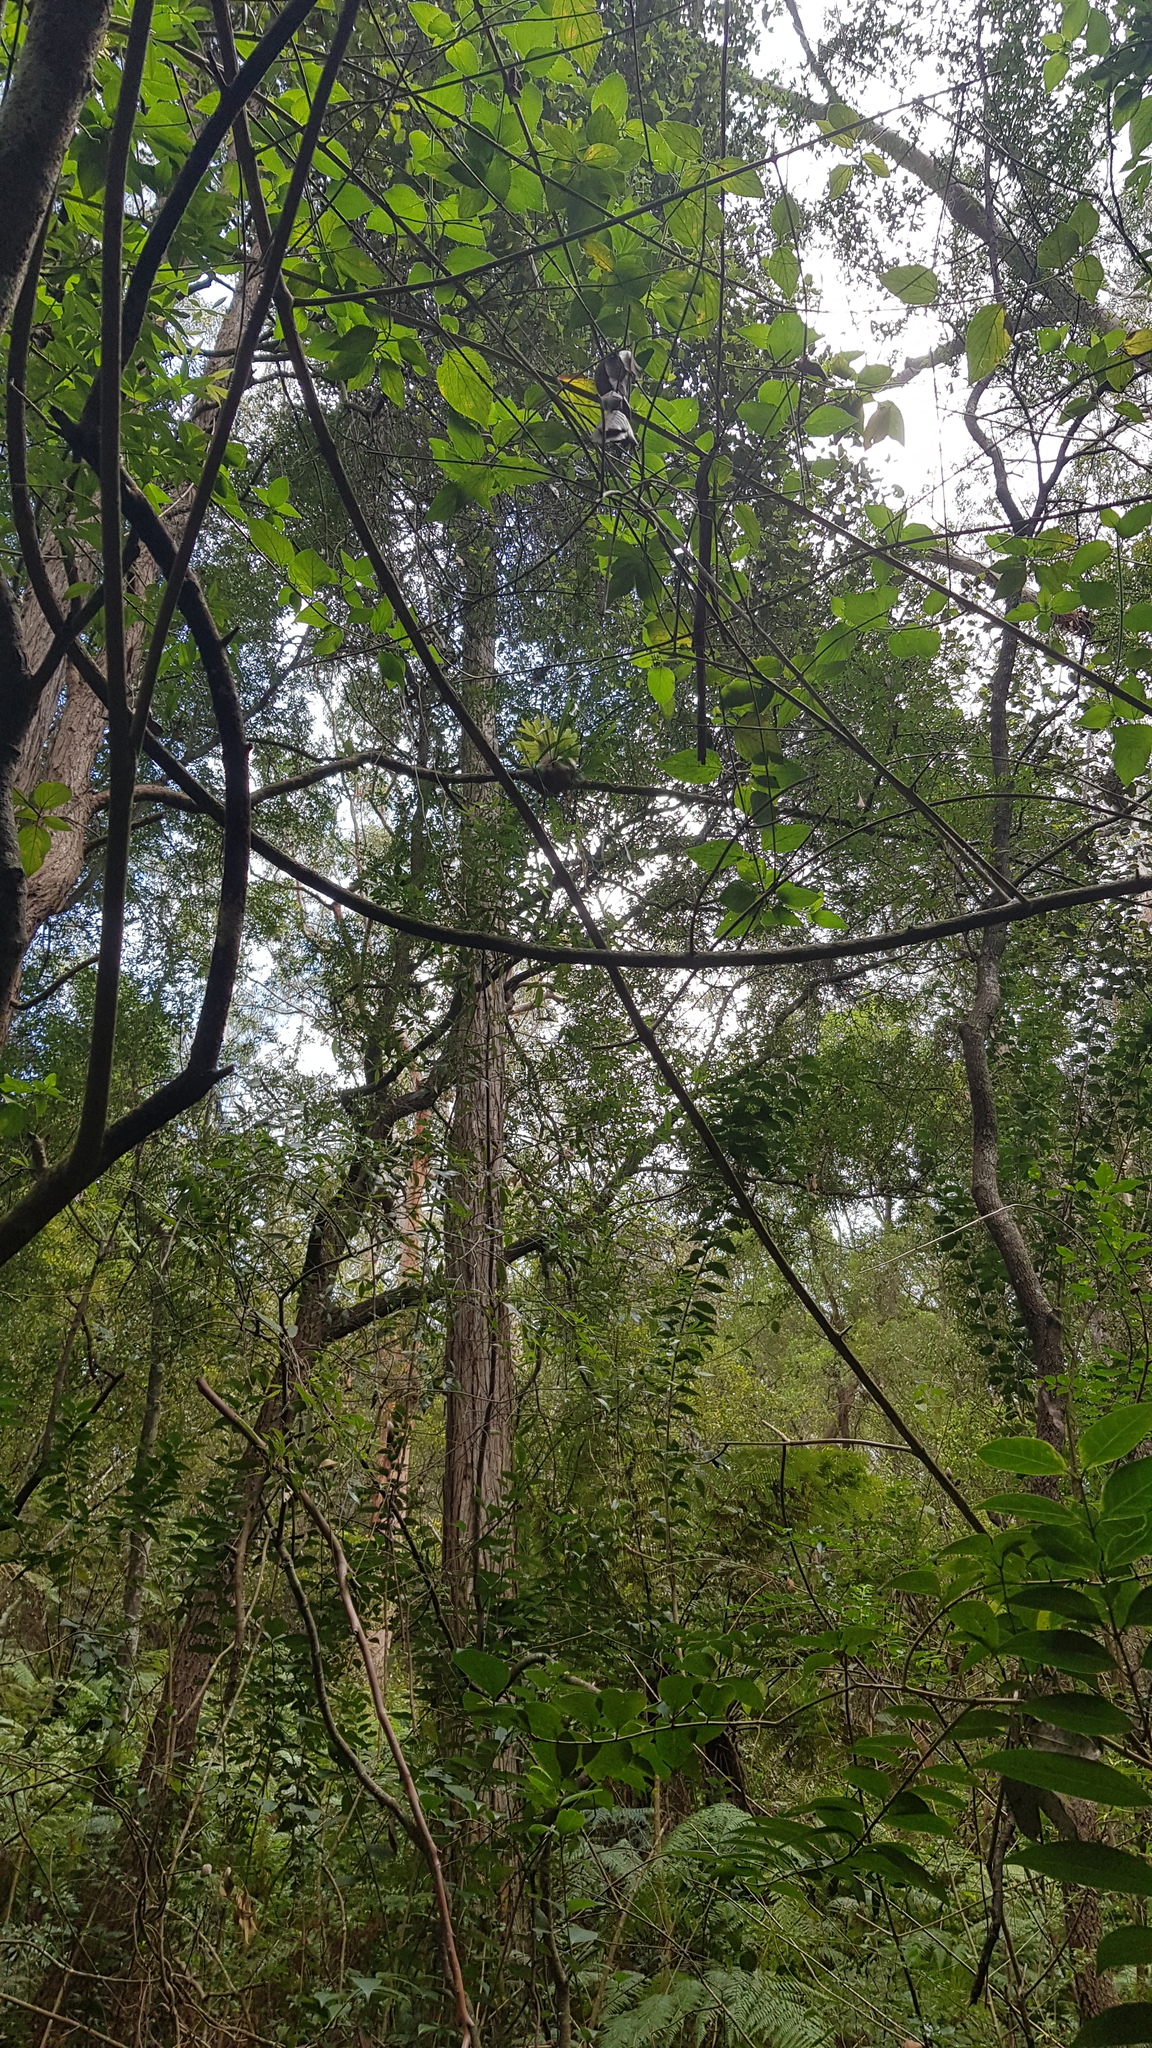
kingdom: Plantae
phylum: Tracheophyta
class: Polypodiopsida
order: Polypodiales
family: Polypodiaceae
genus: Platycerium
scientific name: Platycerium bifurcatum
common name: Elkhorn fern
